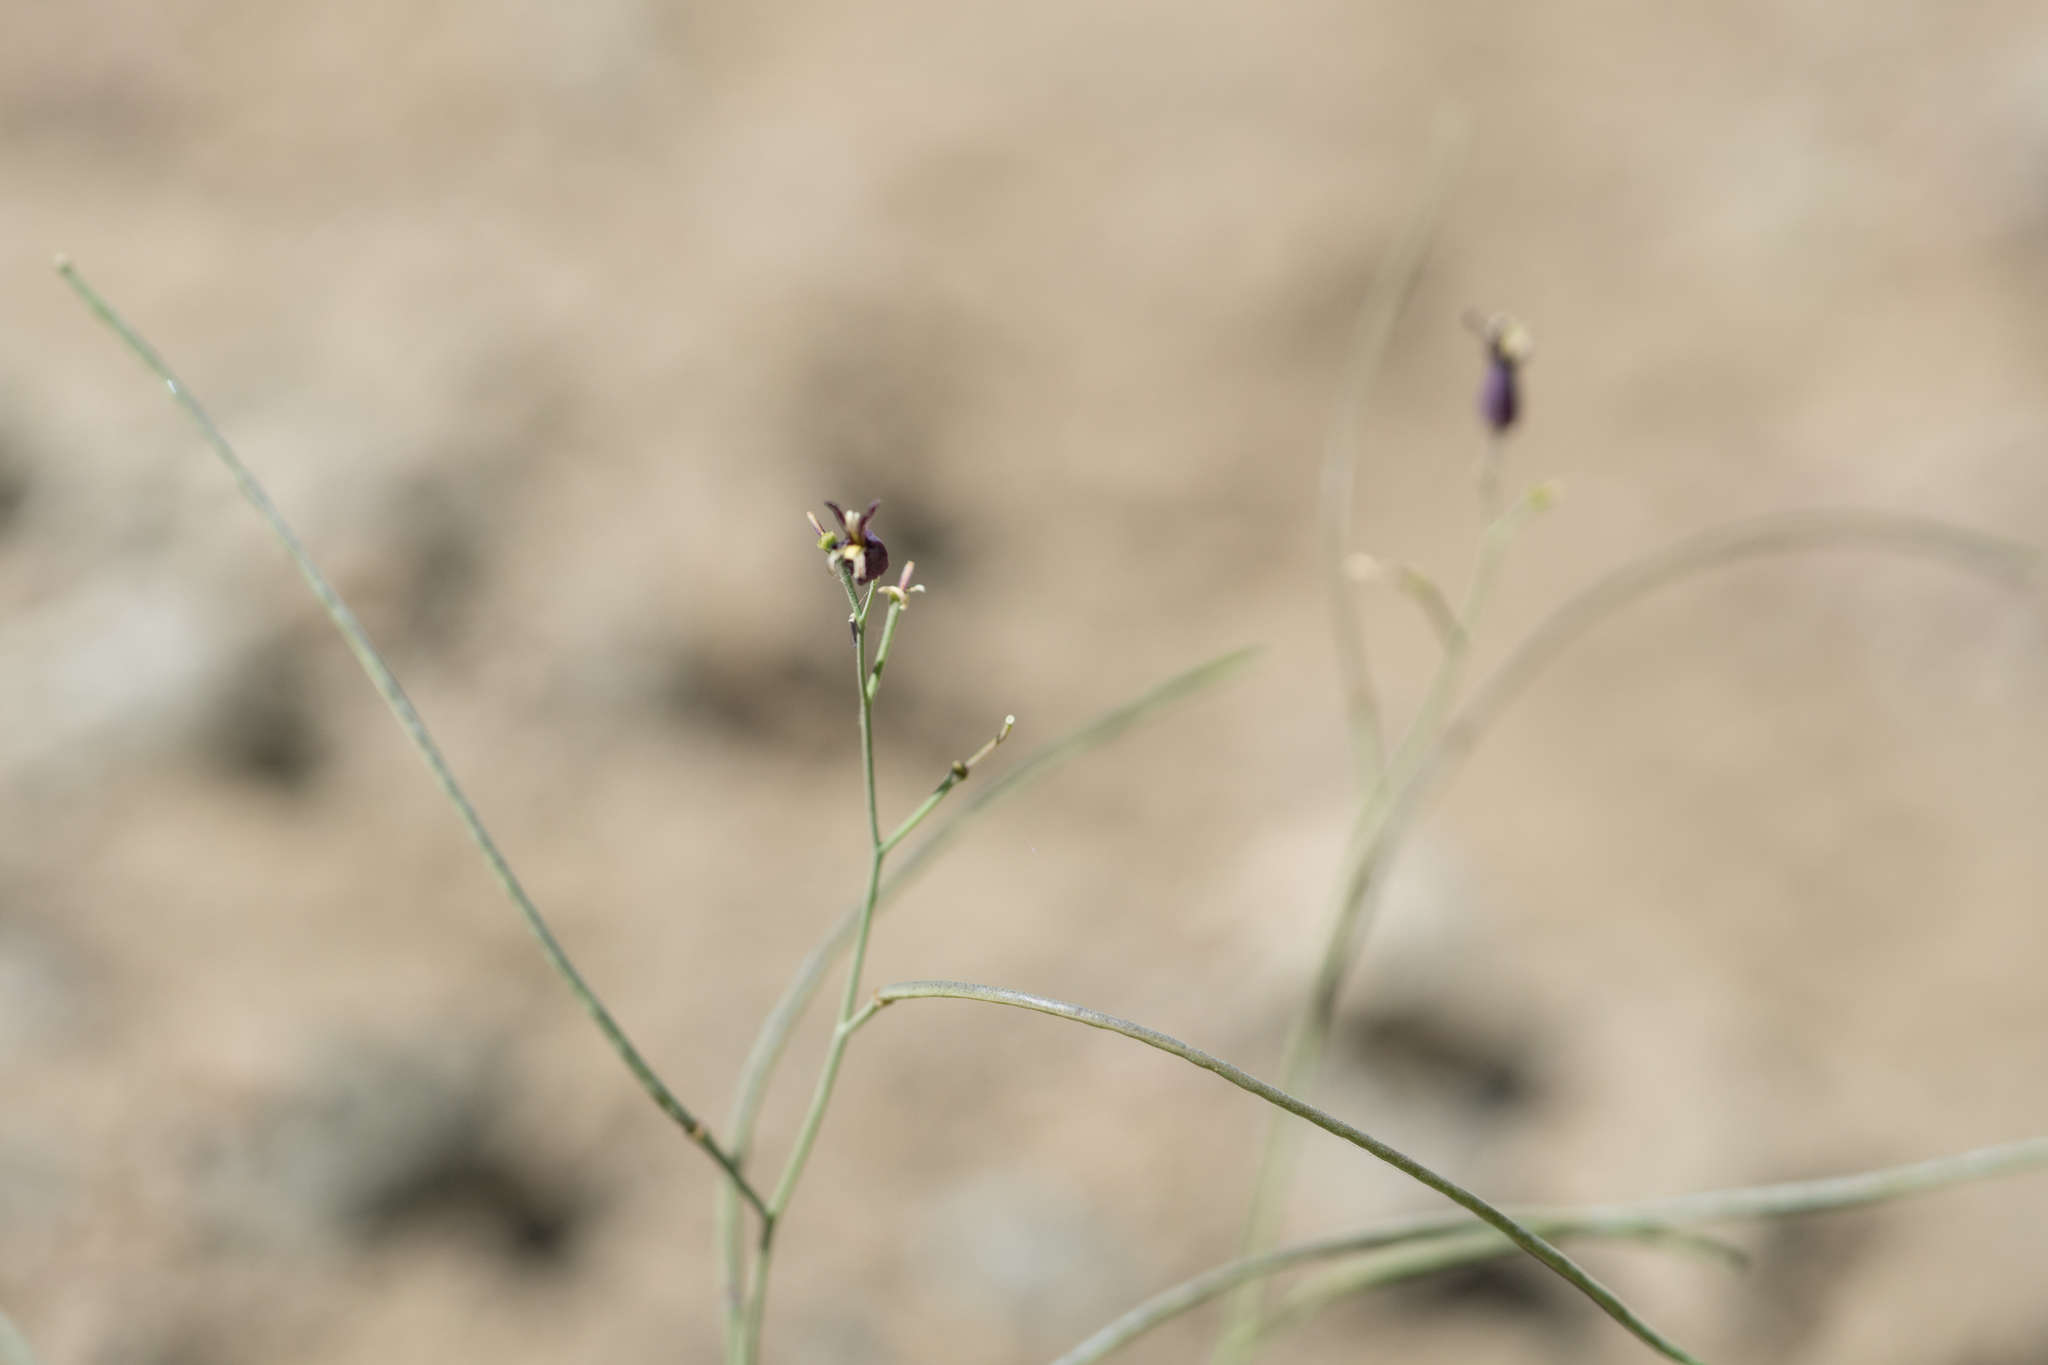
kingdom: Plantae
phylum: Tracheophyta
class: Magnoliopsida
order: Brassicales
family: Brassicaceae
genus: Streptanthus
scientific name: Streptanthus amplexicaulis
